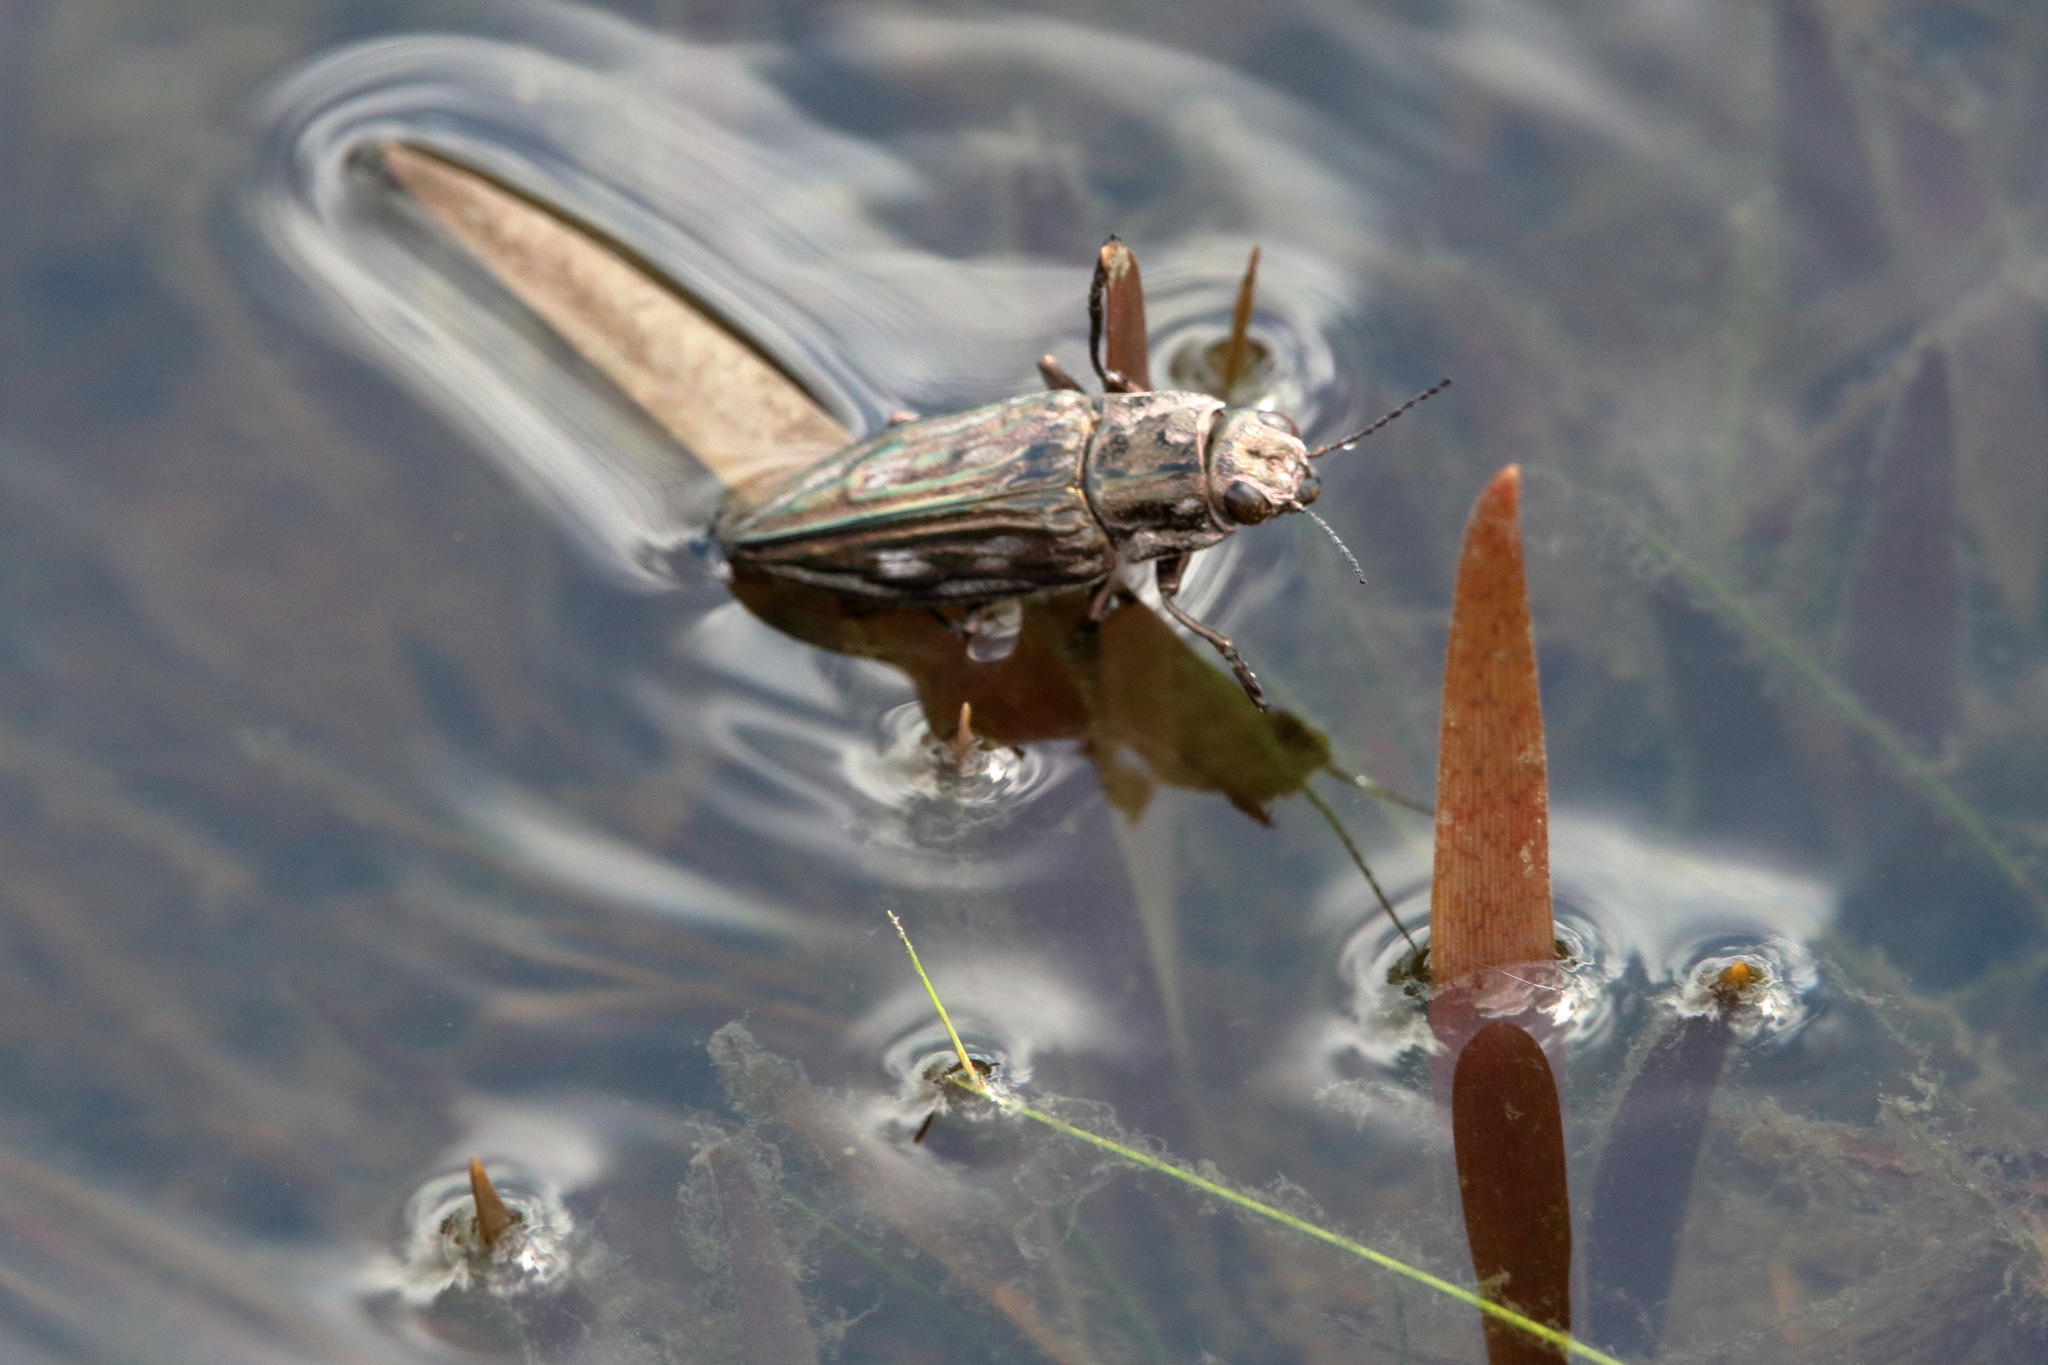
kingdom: Animalia
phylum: Arthropoda
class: Insecta
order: Coleoptera
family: Buprestidae
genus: Chalcophora
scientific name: Chalcophora georgiana
